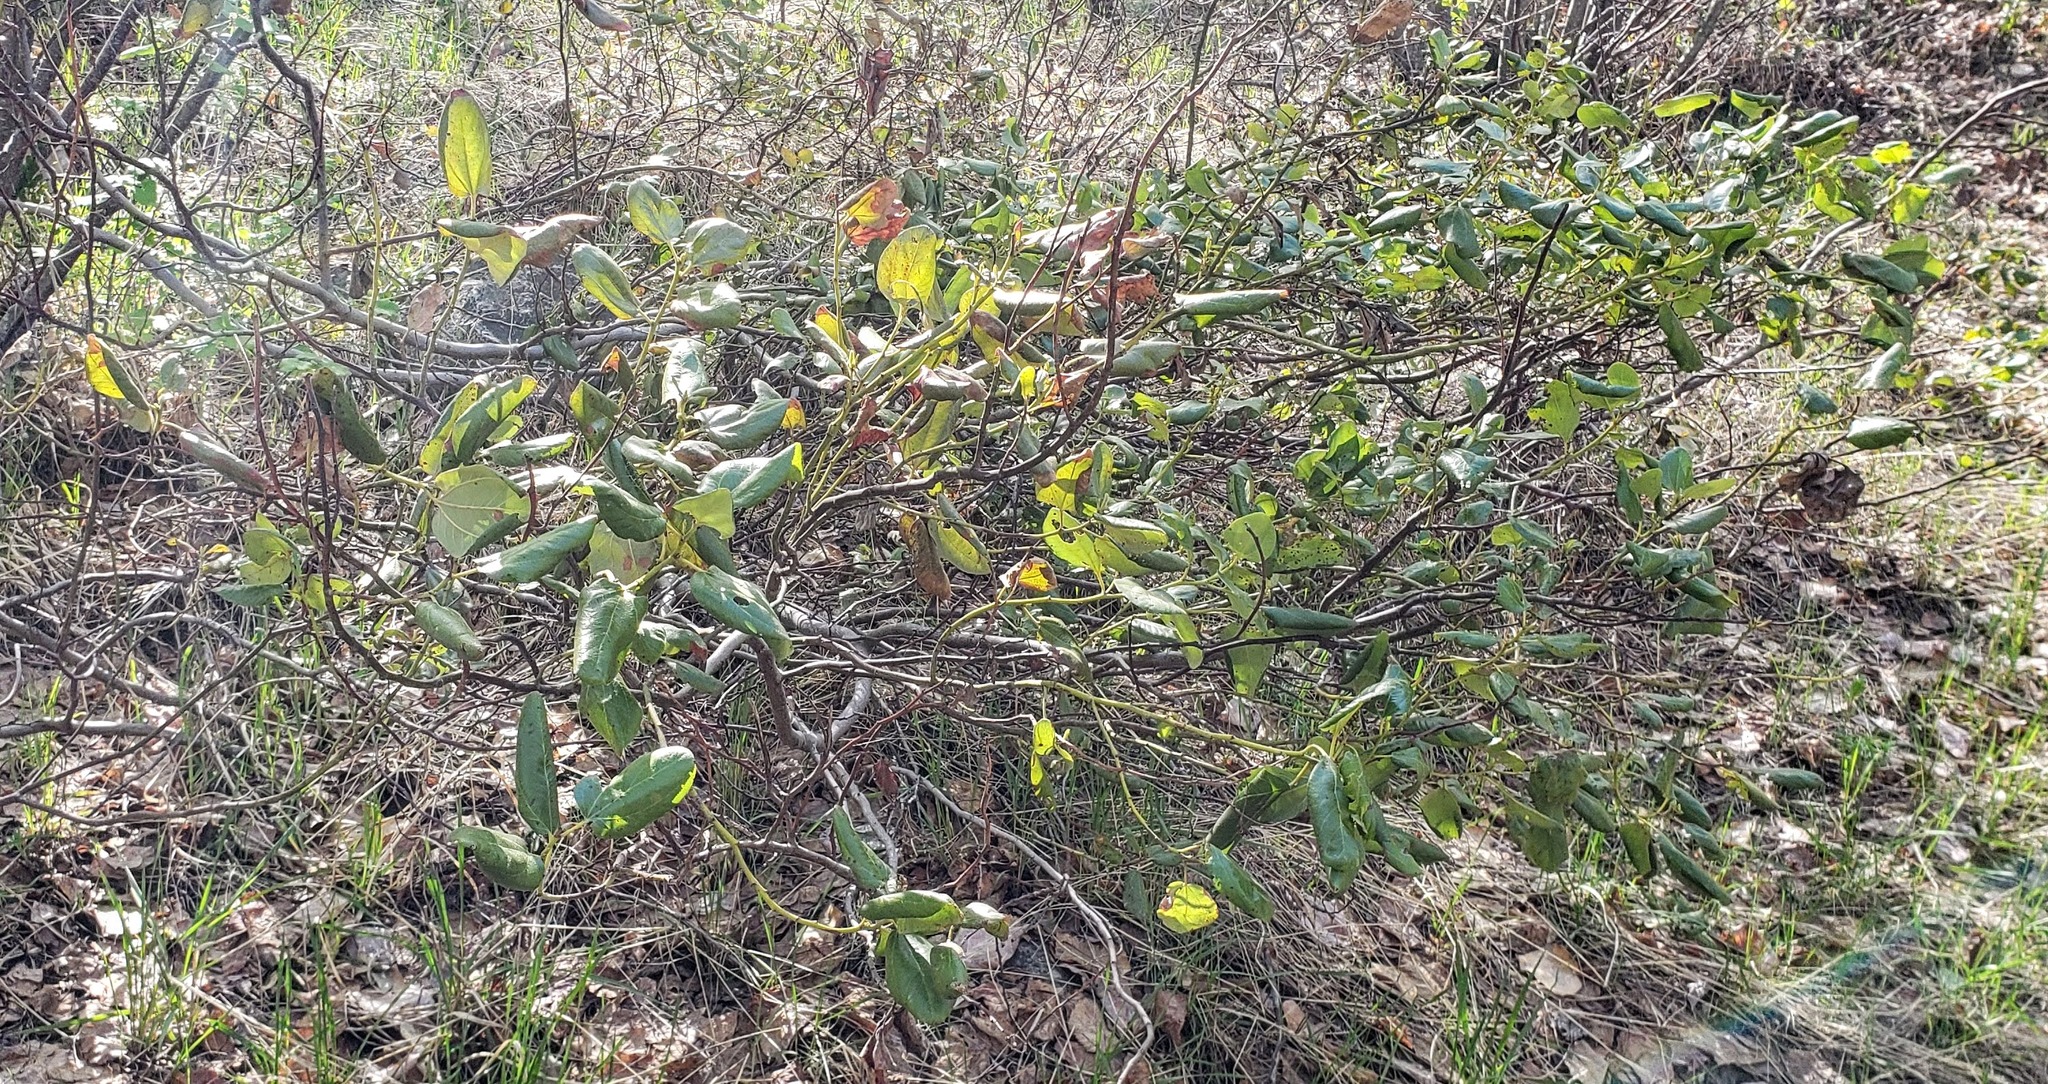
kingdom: Plantae
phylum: Tracheophyta
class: Magnoliopsida
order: Rosales
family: Rhamnaceae
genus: Ceanothus
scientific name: Ceanothus velutinus
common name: Snowbrush
